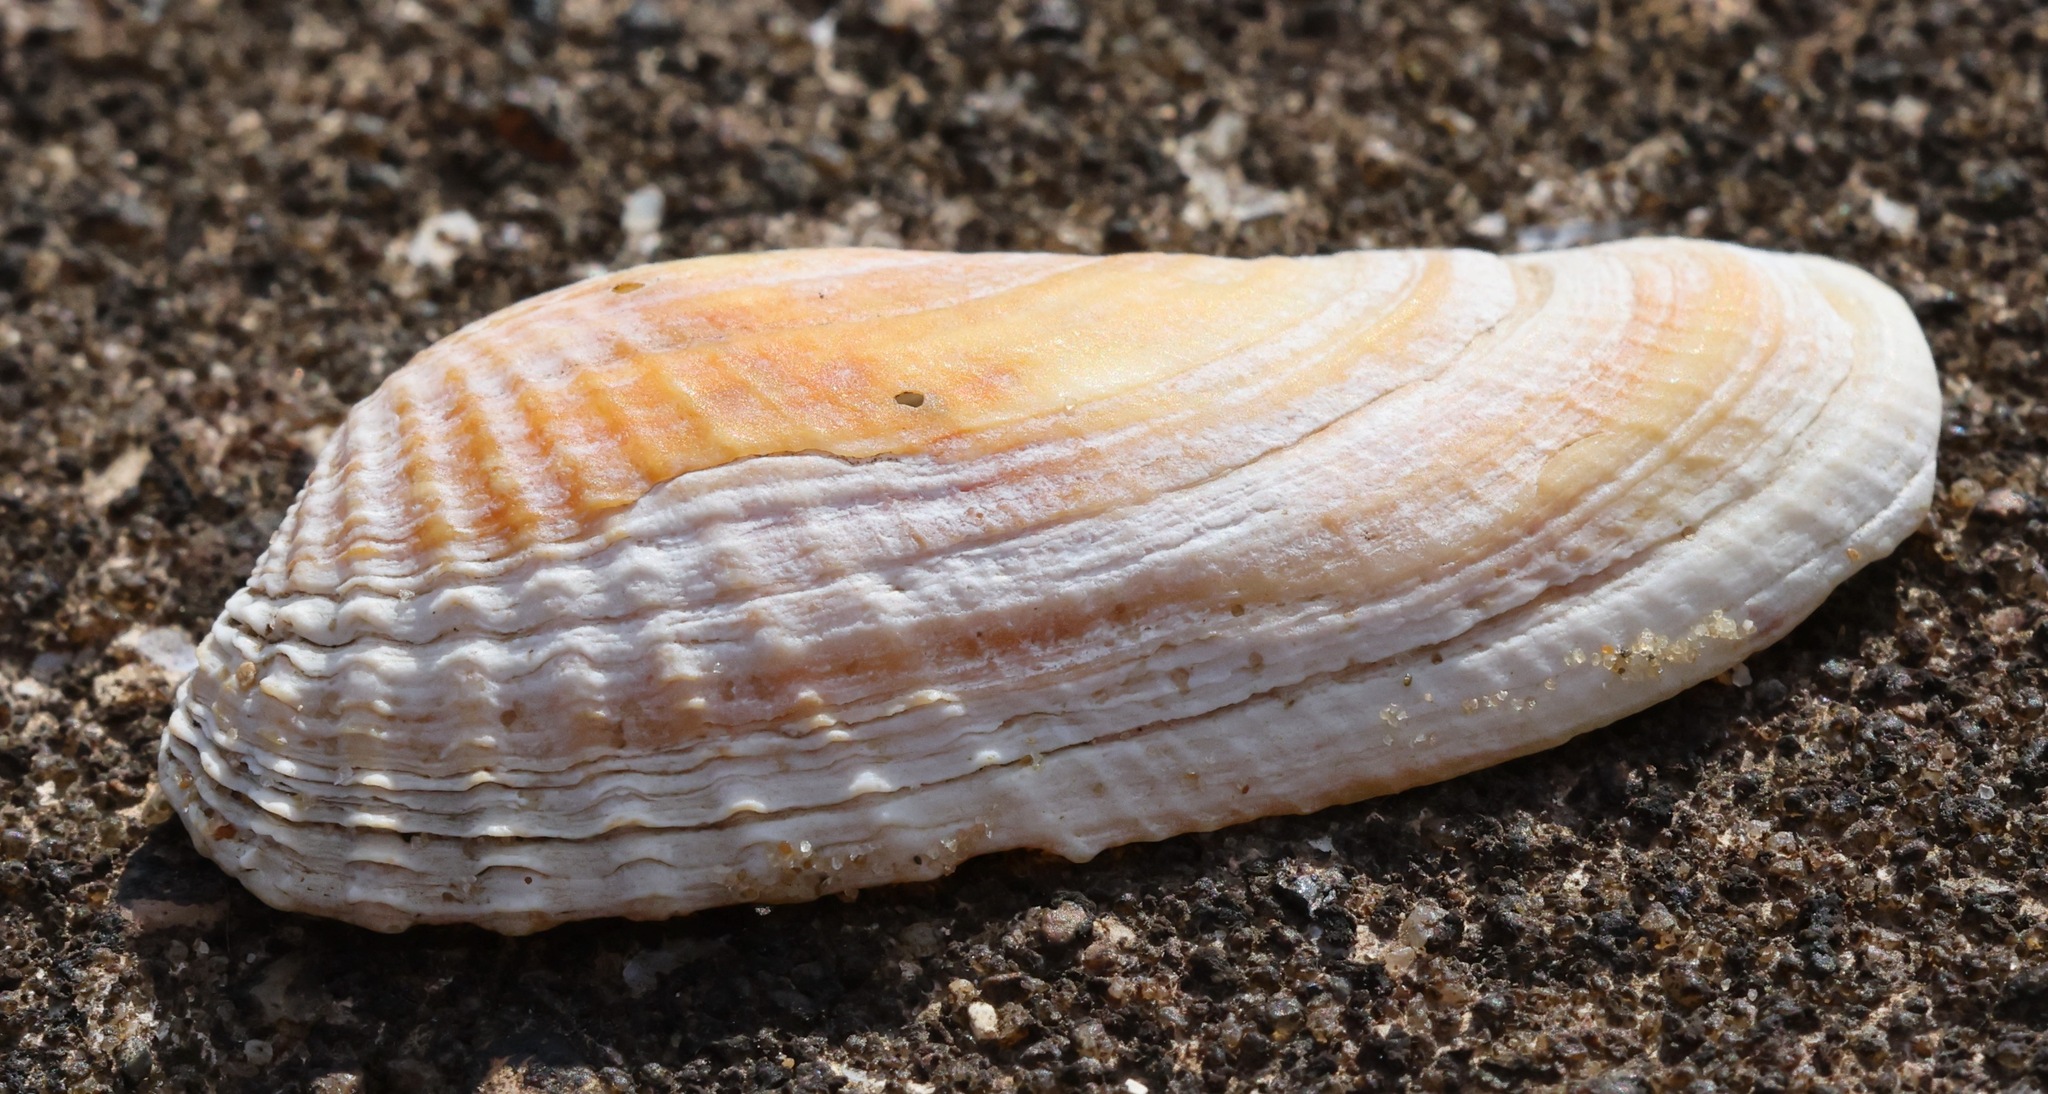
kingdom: Animalia
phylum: Mollusca
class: Bivalvia
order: Venerida
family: Veneridae
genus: Petricolaria
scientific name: Petricolaria pholadiformis
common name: American piddock
